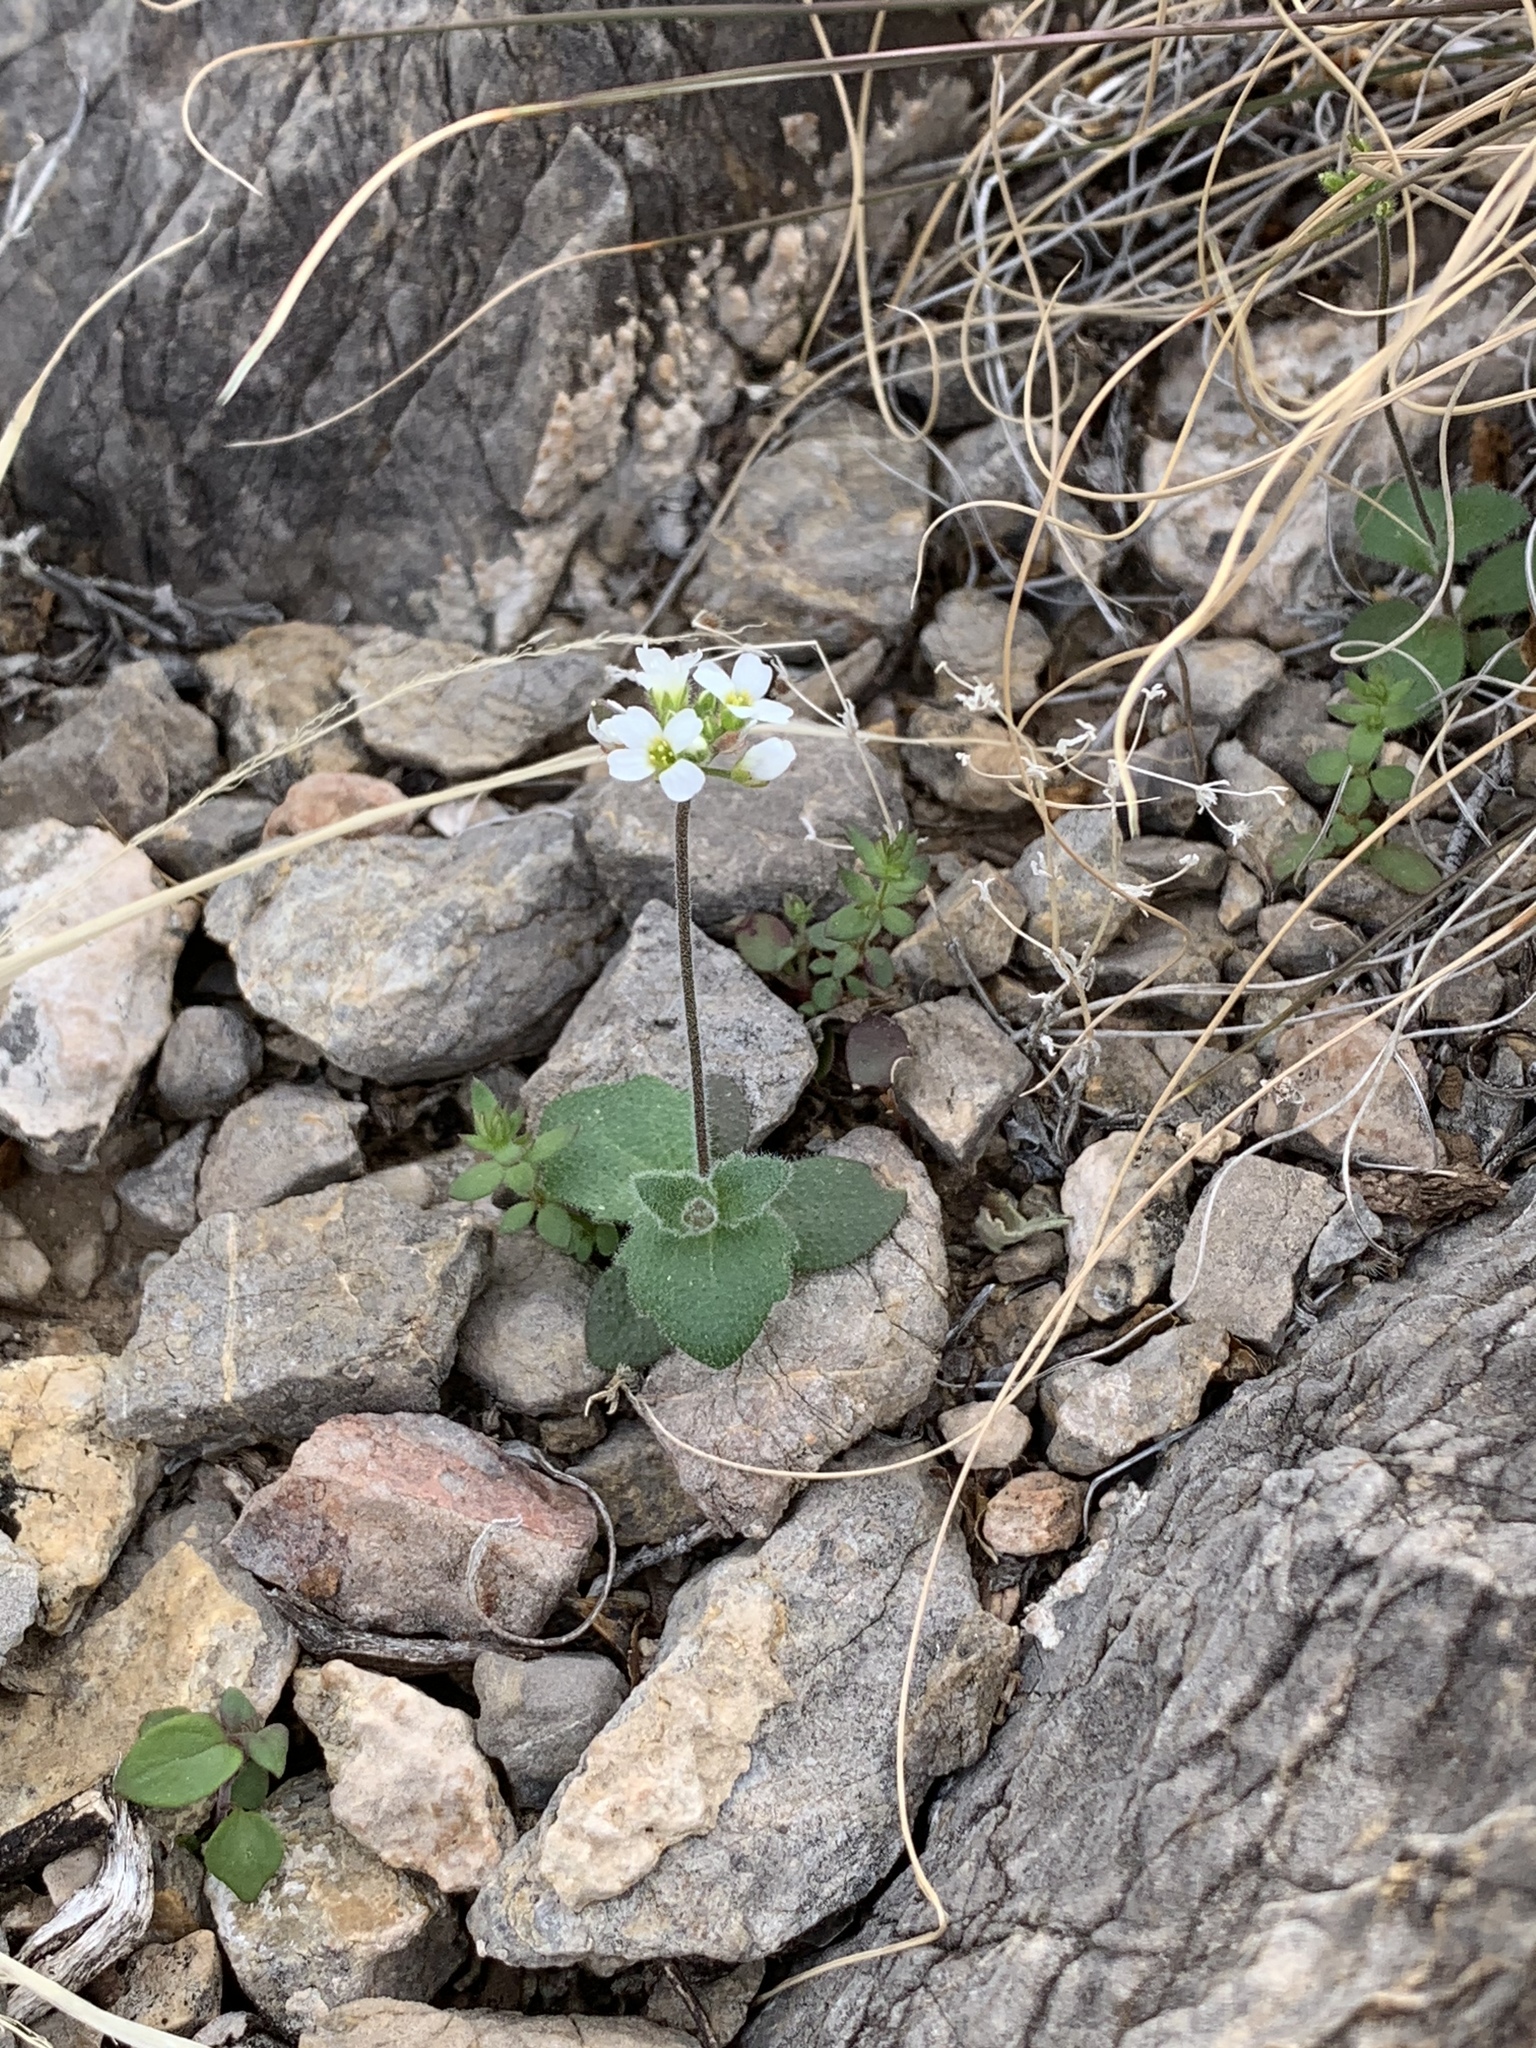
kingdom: Plantae
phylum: Tracheophyta
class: Magnoliopsida
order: Brassicales
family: Brassicaceae
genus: Tomostima
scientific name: Tomostima cuneifolia
